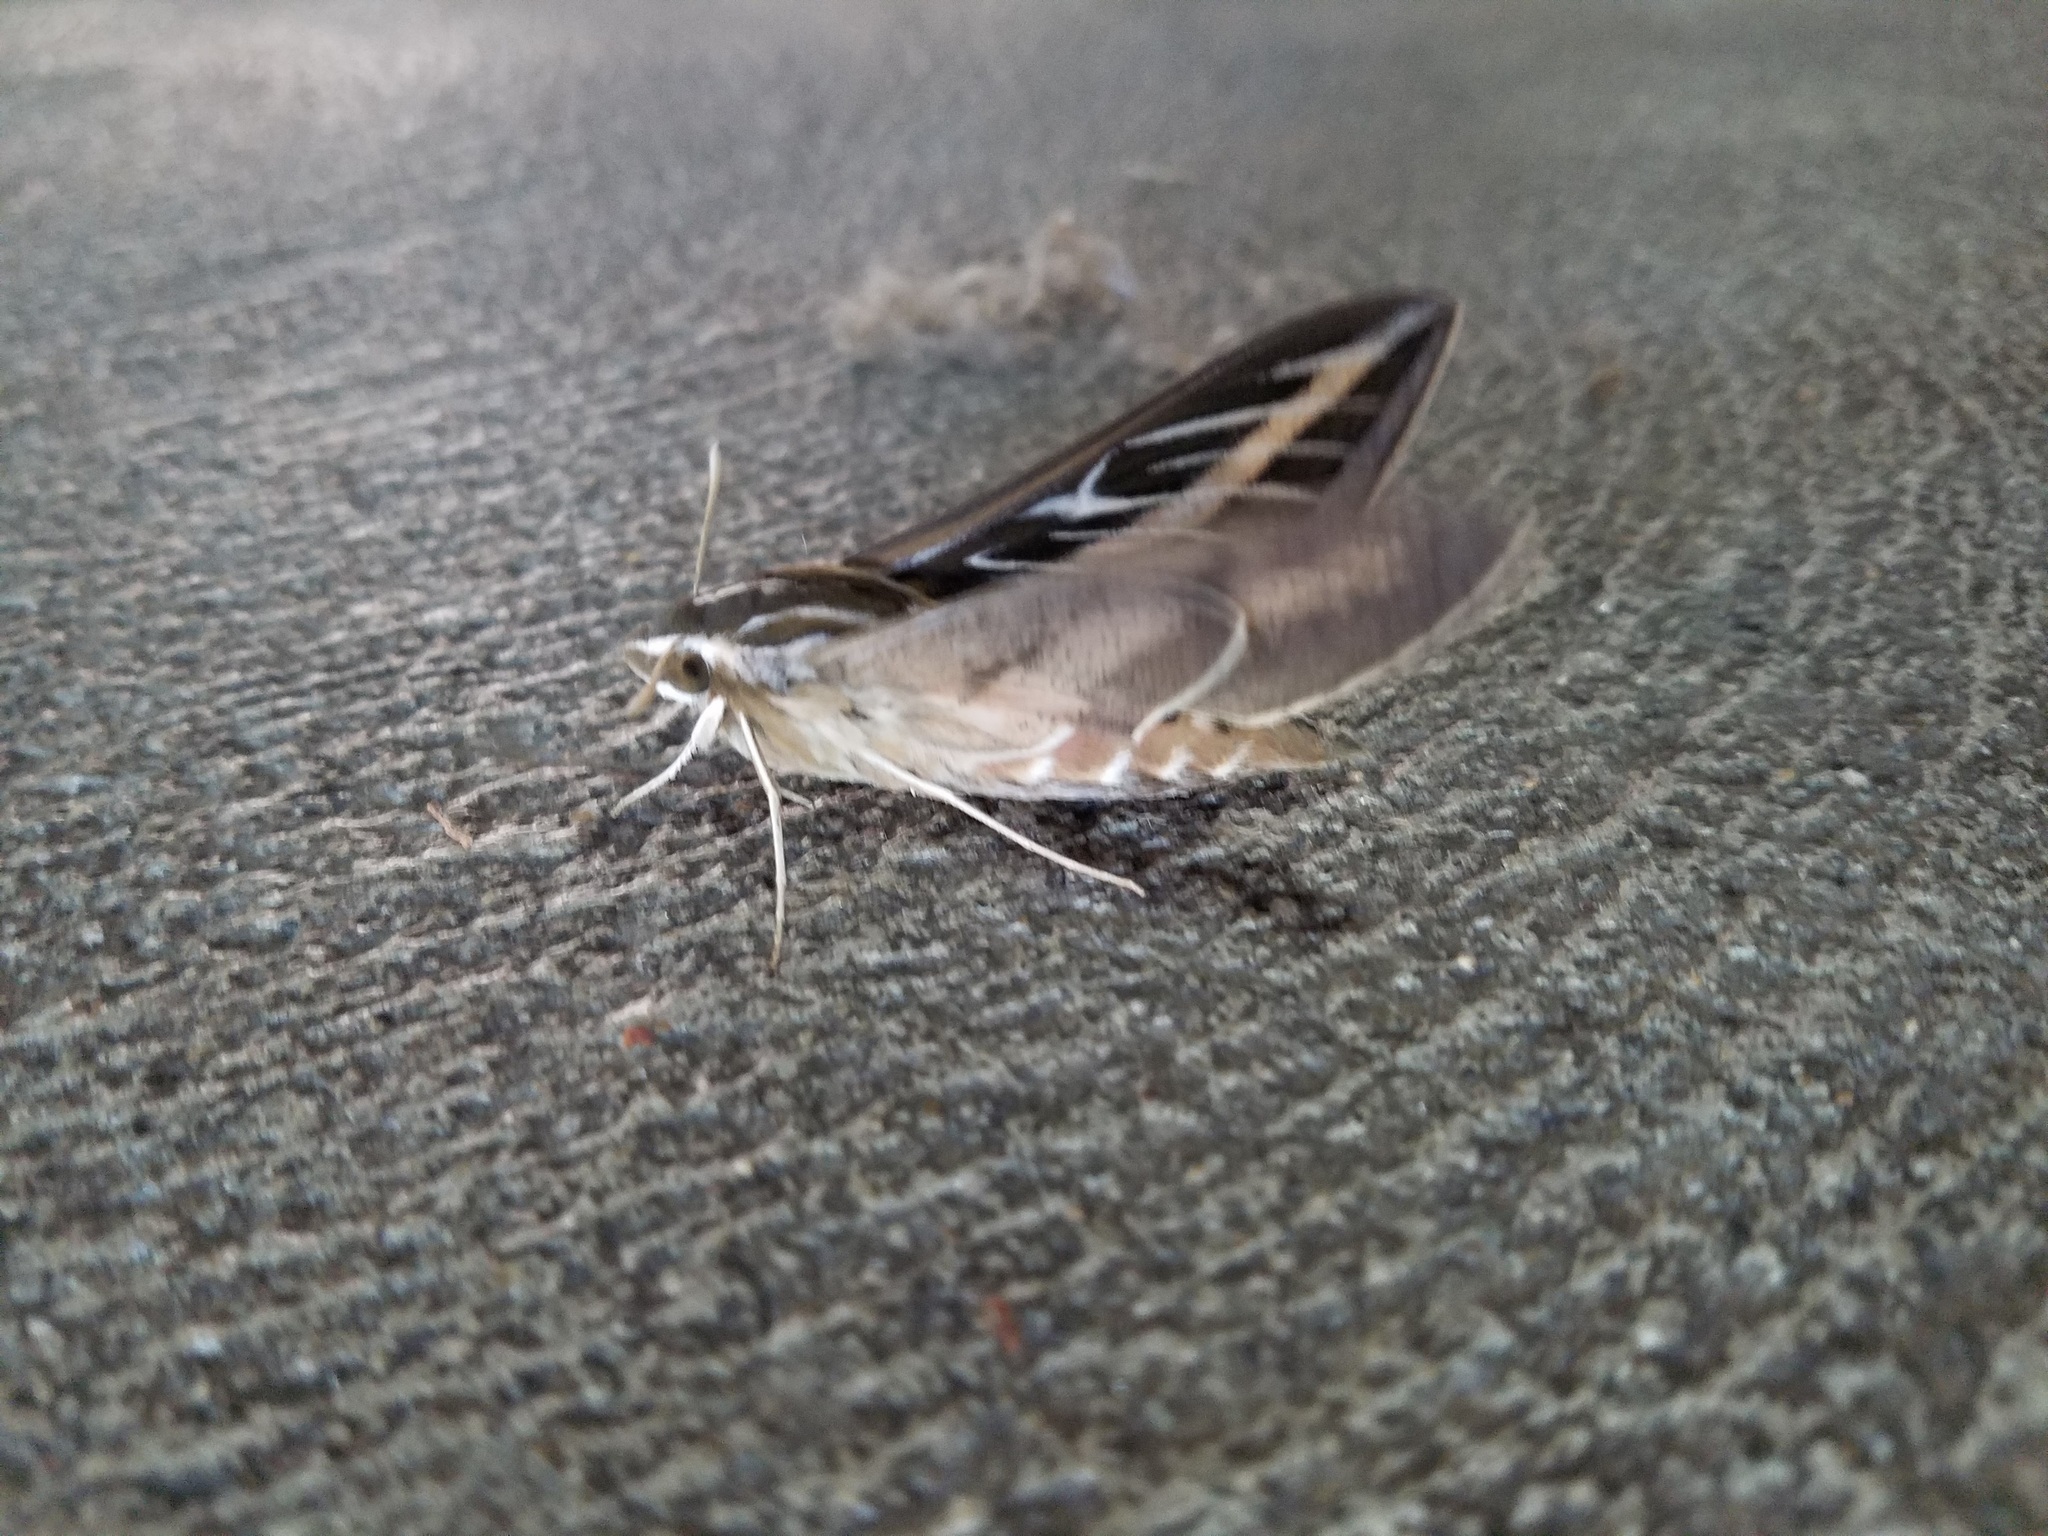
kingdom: Animalia
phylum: Arthropoda
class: Insecta
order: Lepidoptera
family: Sphingidae
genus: Hyles
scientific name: Hyles lineata
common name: White-lined sphinx
